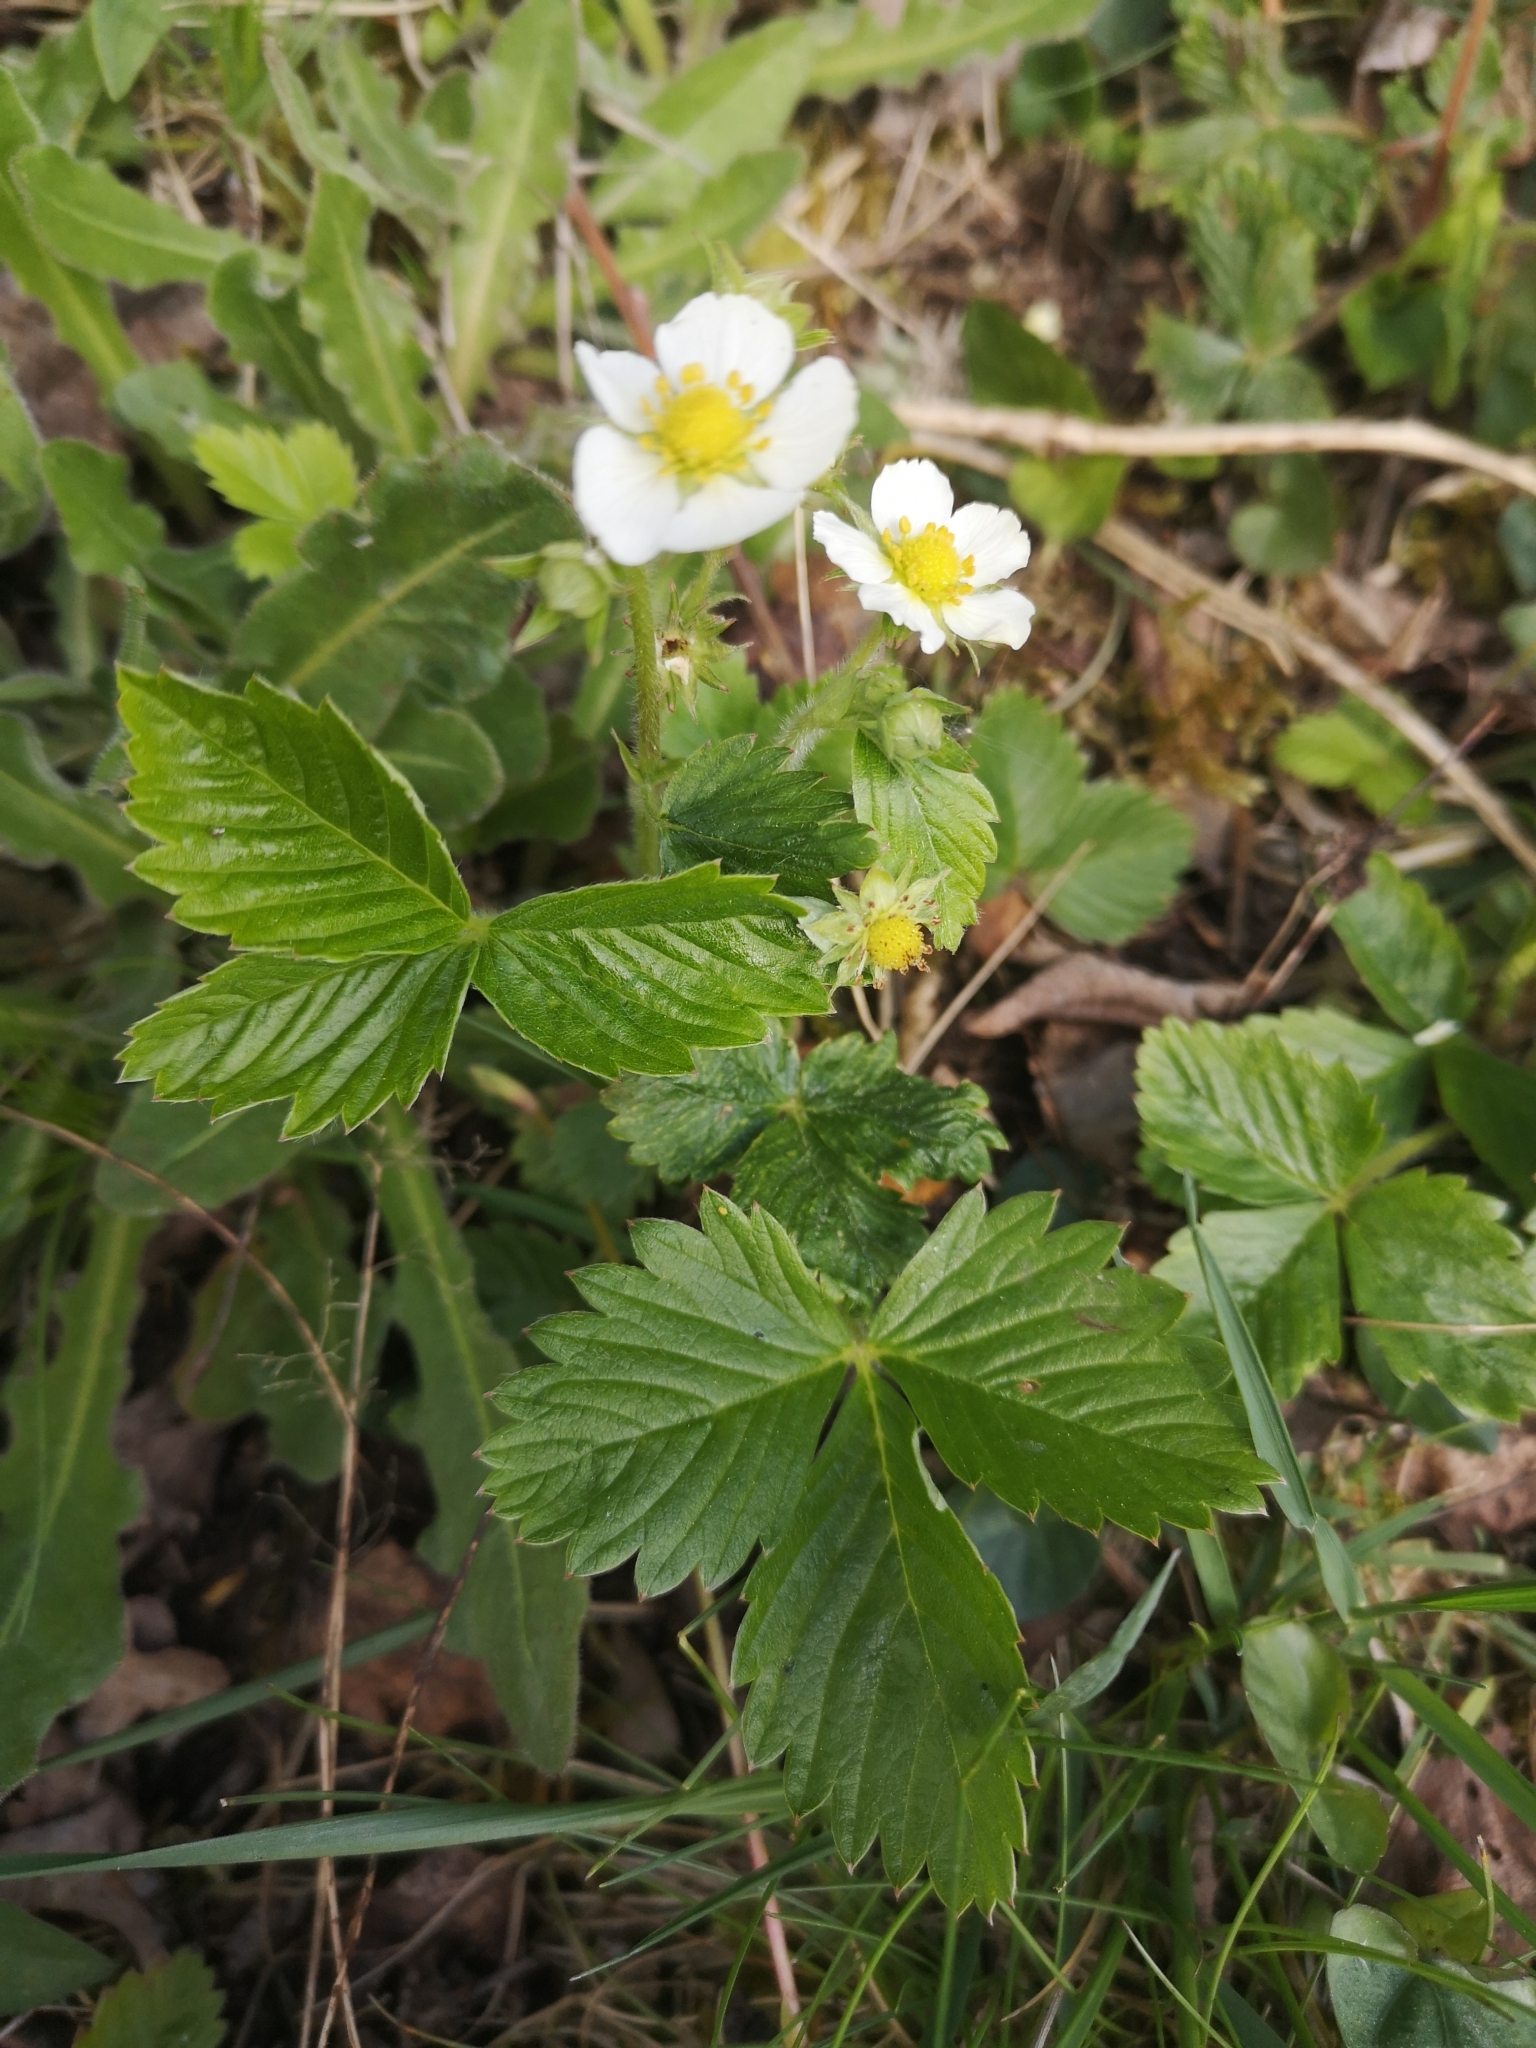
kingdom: Plantae
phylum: Tracheophyta
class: Magnoliopsida
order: Rosales
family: Rosaceae
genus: Fragaria
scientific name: Fragaria vesca
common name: Wild strawberry
